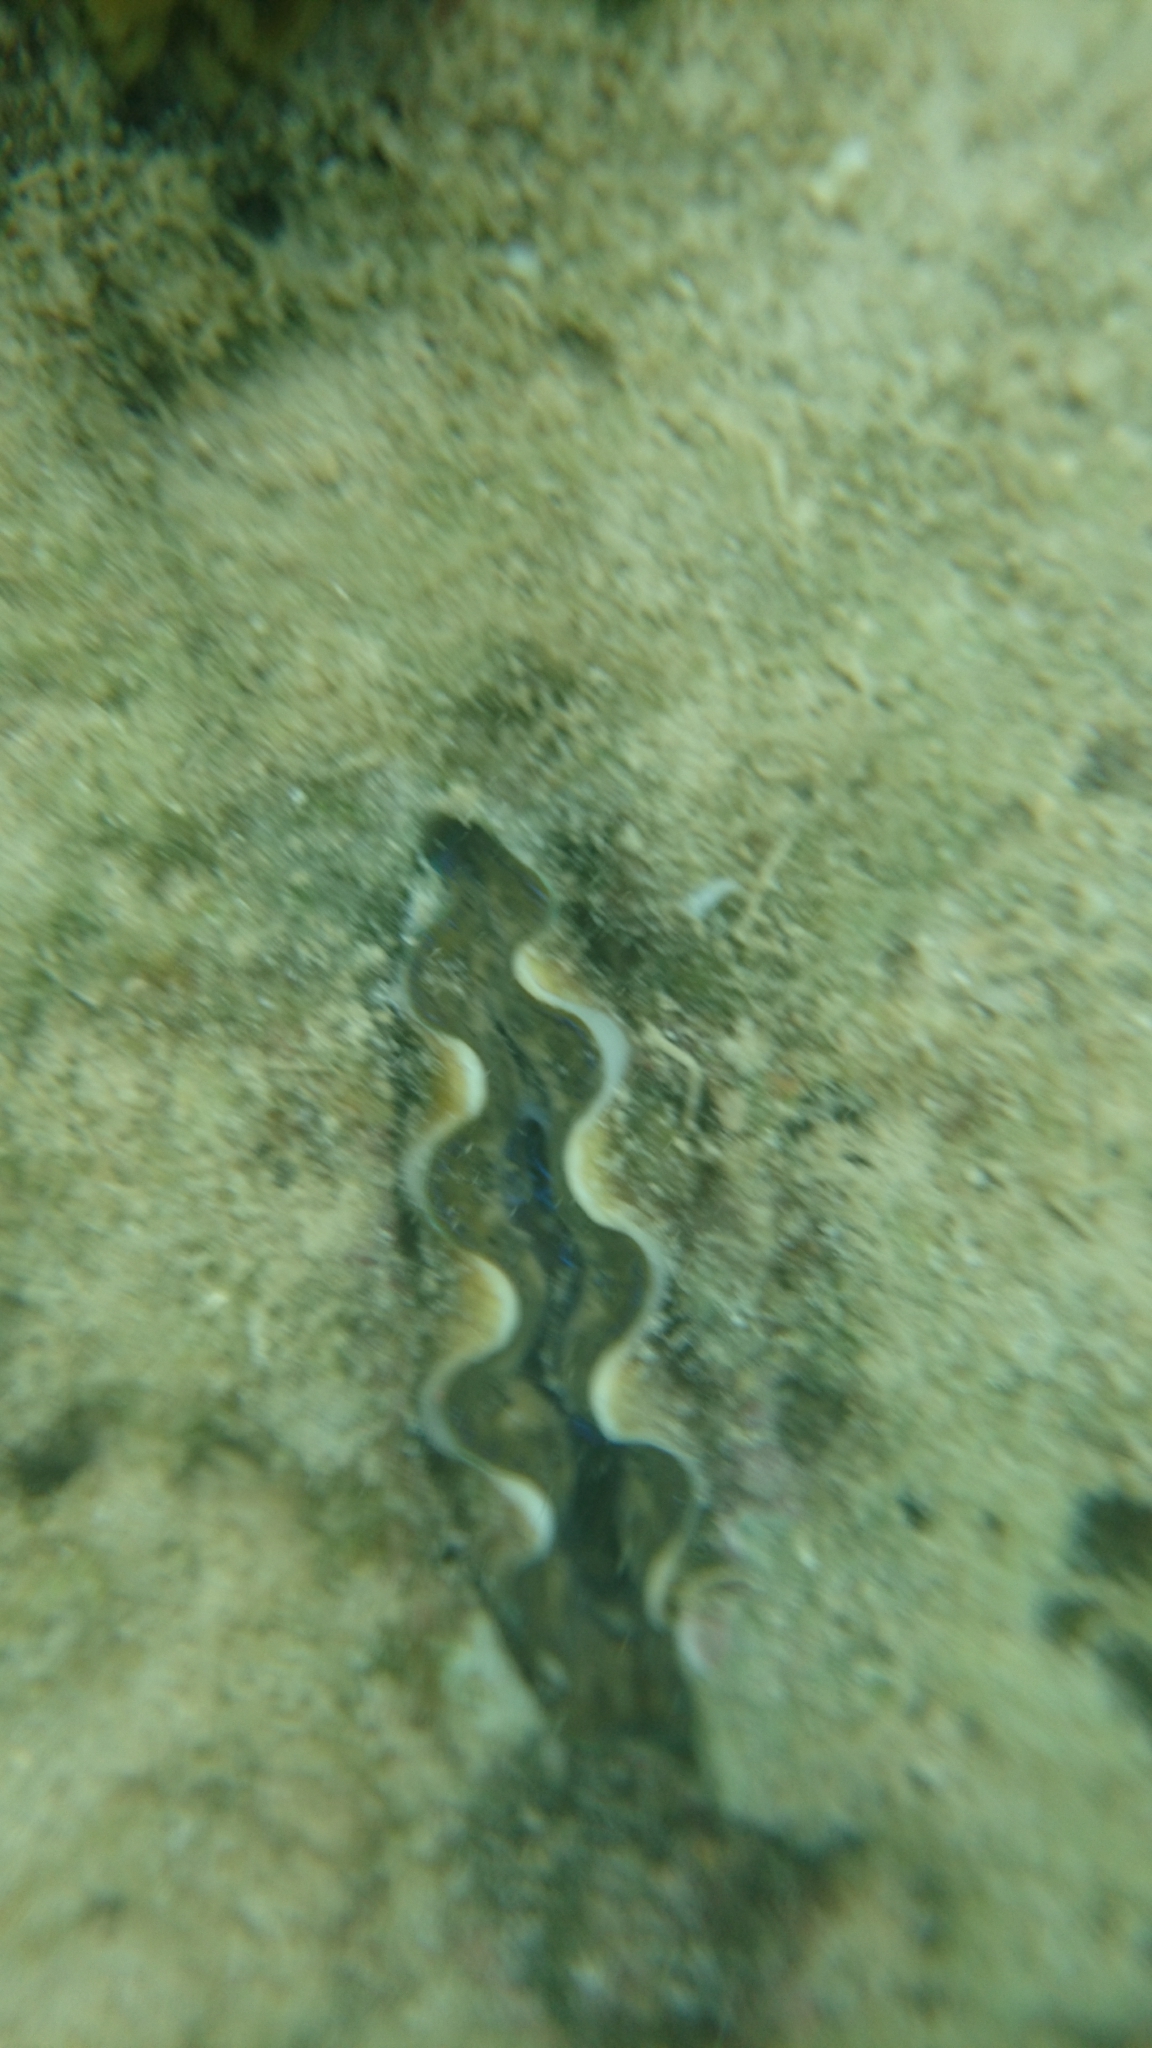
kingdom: Animalia
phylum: Mollusca
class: Bivalvia
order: Cardiida
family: Cardiidae
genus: Tridacna
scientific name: Tridacna crocea
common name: Boring clam
